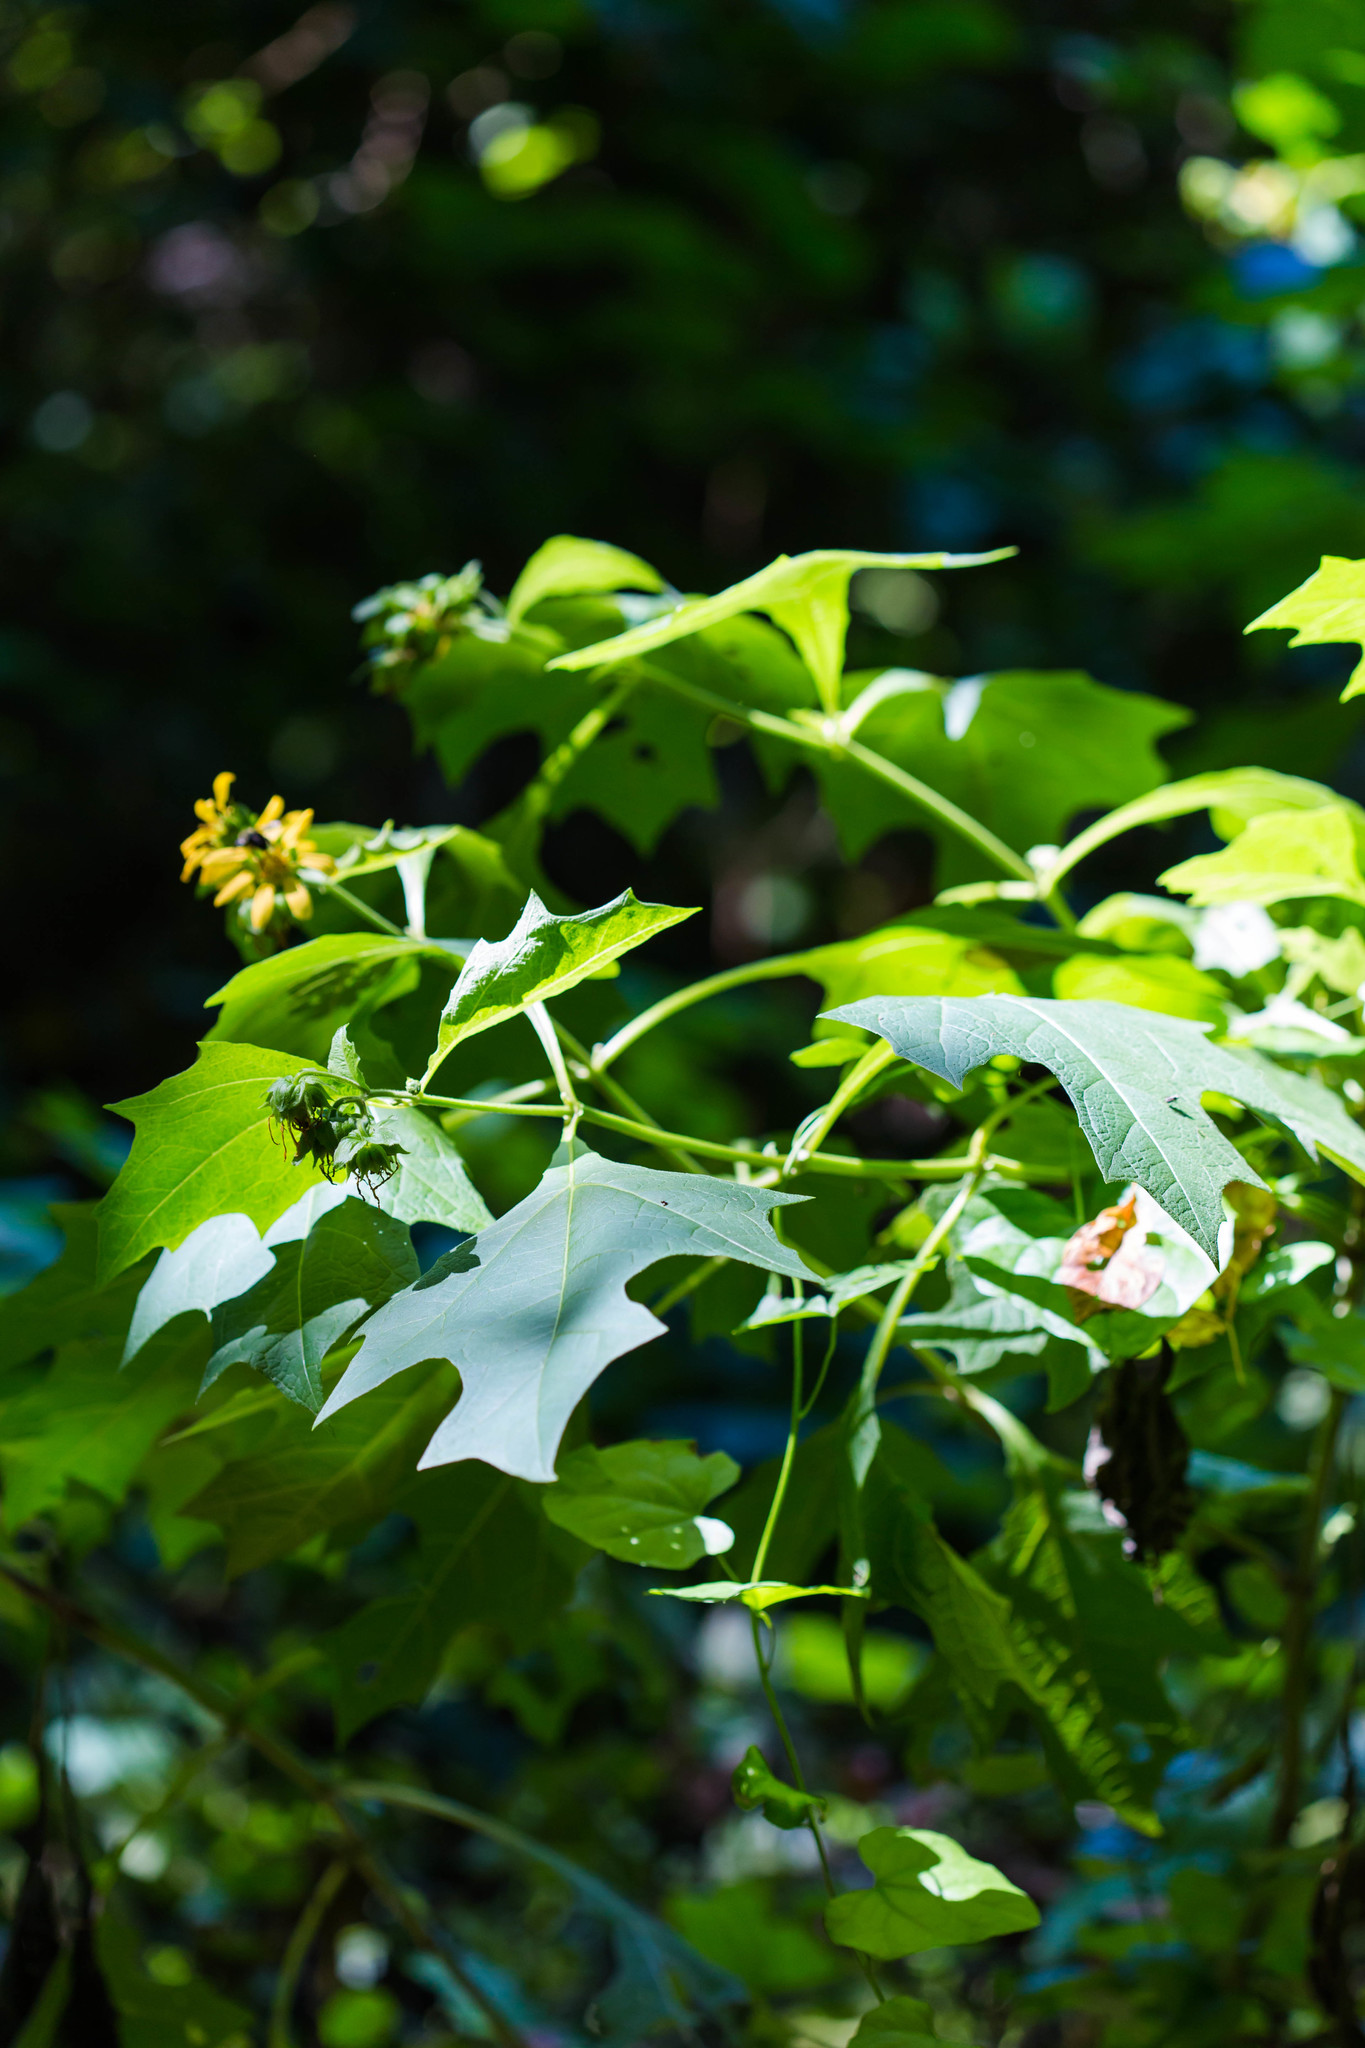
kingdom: Plantae
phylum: Tracheophyta
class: Magnoliopsida
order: Asterales
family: Asteraceae
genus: Smallanthus
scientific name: Smallanthus uvedalia
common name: Bear's-foot
